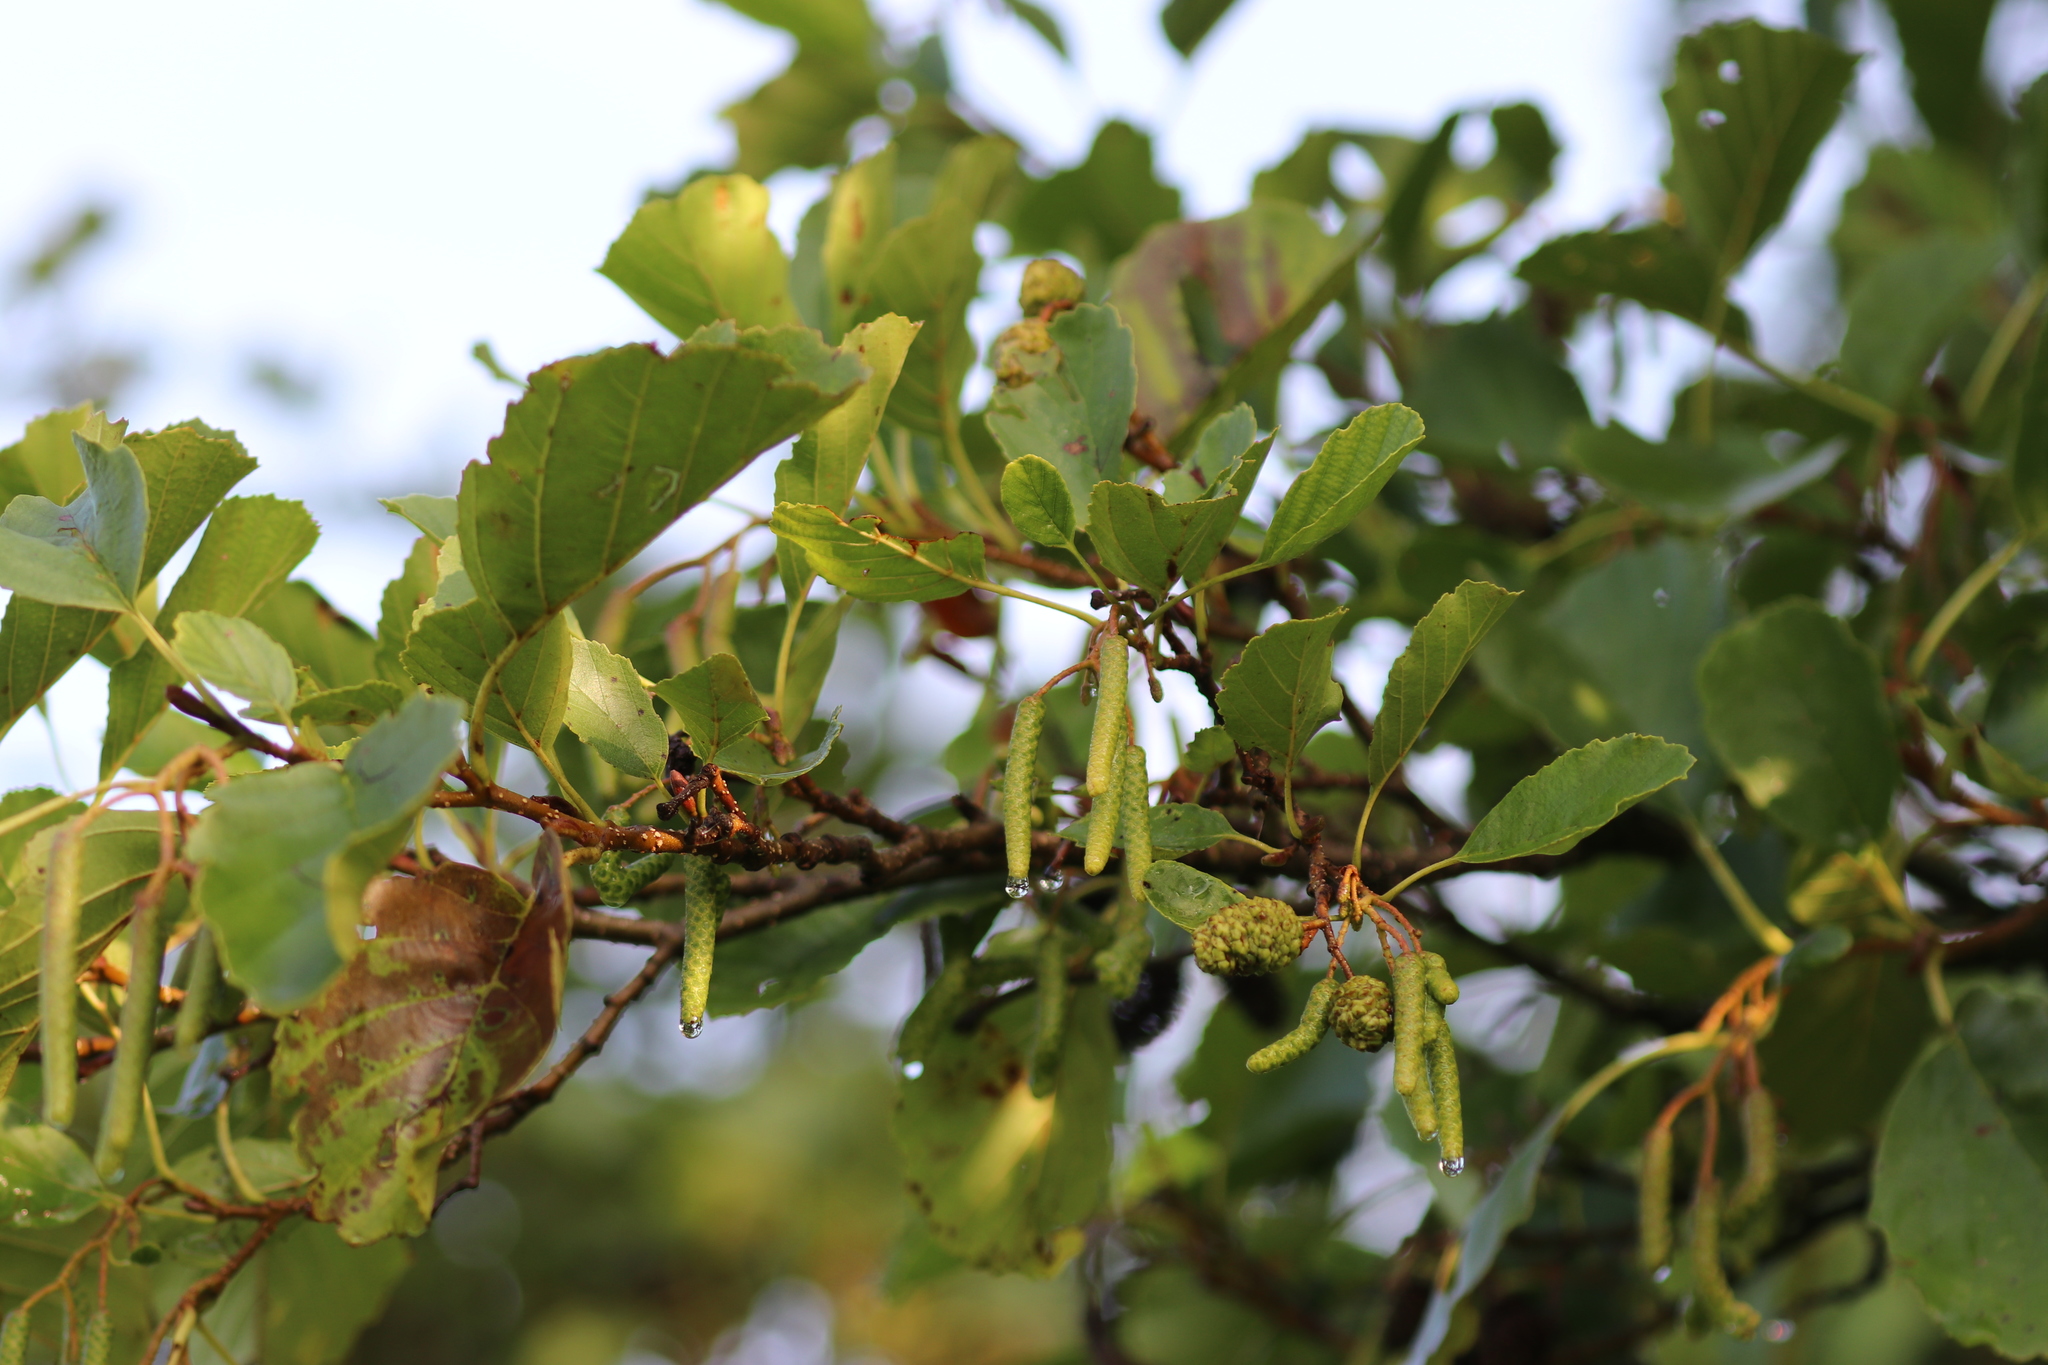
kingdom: Plantae
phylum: Tracheophyta
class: Magnoliopsida
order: Fagales
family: Betulaceae
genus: Alnus
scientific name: Alnus glutinosa
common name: Black alder
